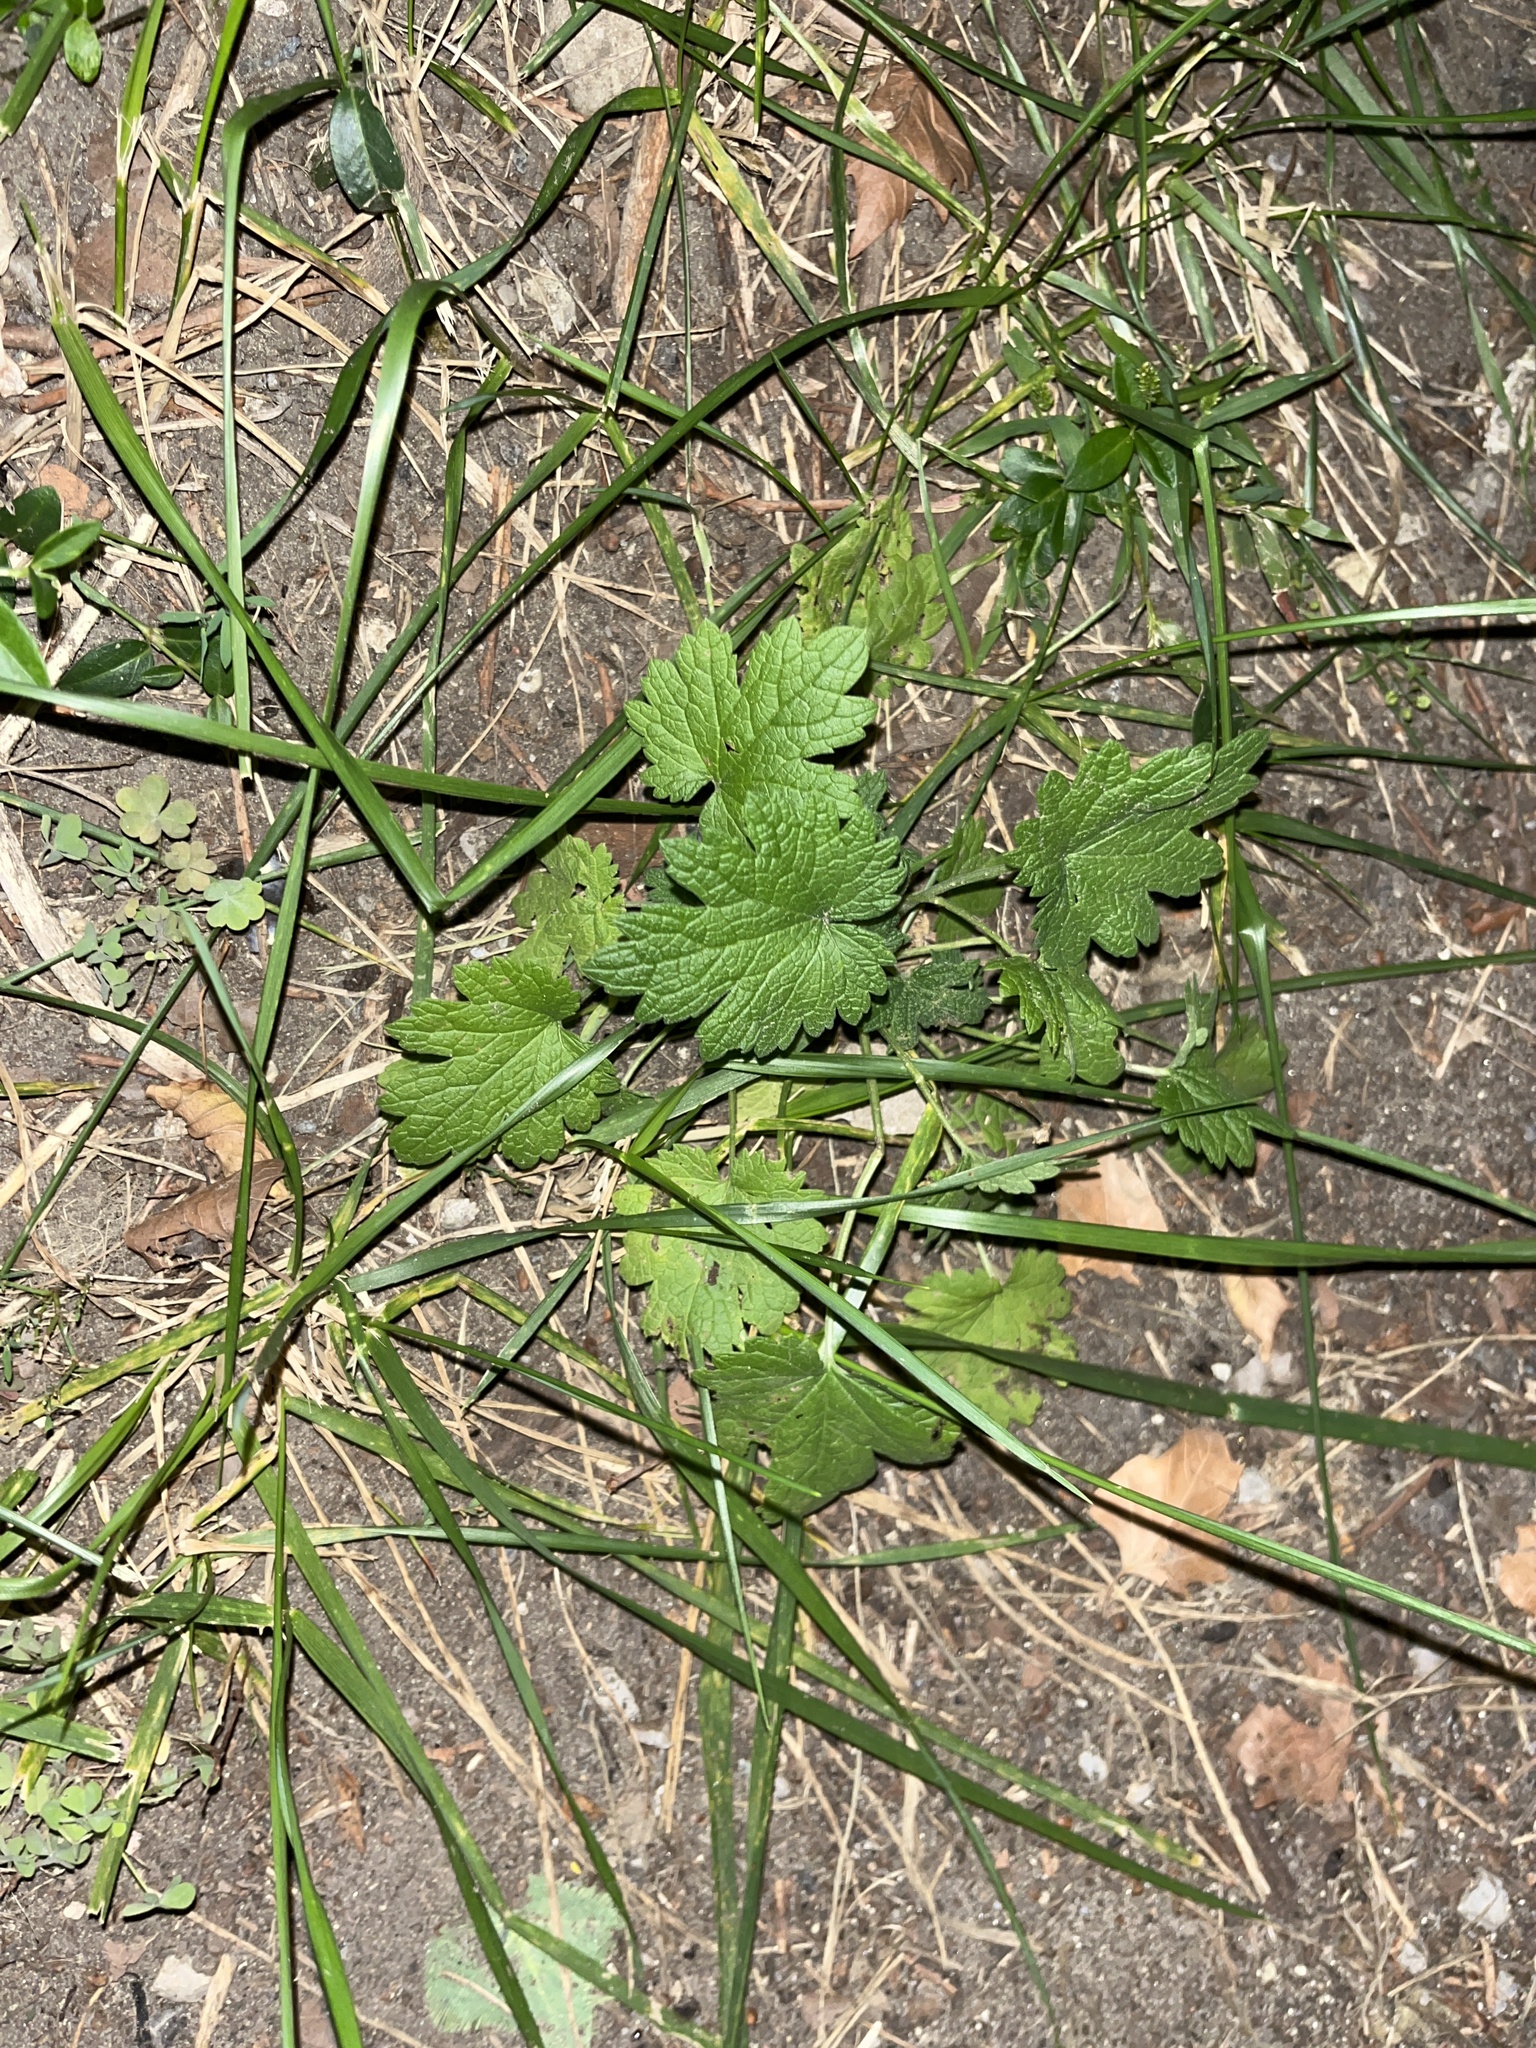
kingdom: Plantae
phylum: Tracheophyta
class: Magnoliopsida
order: Lamiales
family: Lamiaceae
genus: Leonurus
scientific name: Leonurus cardiaca
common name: Motherwort
